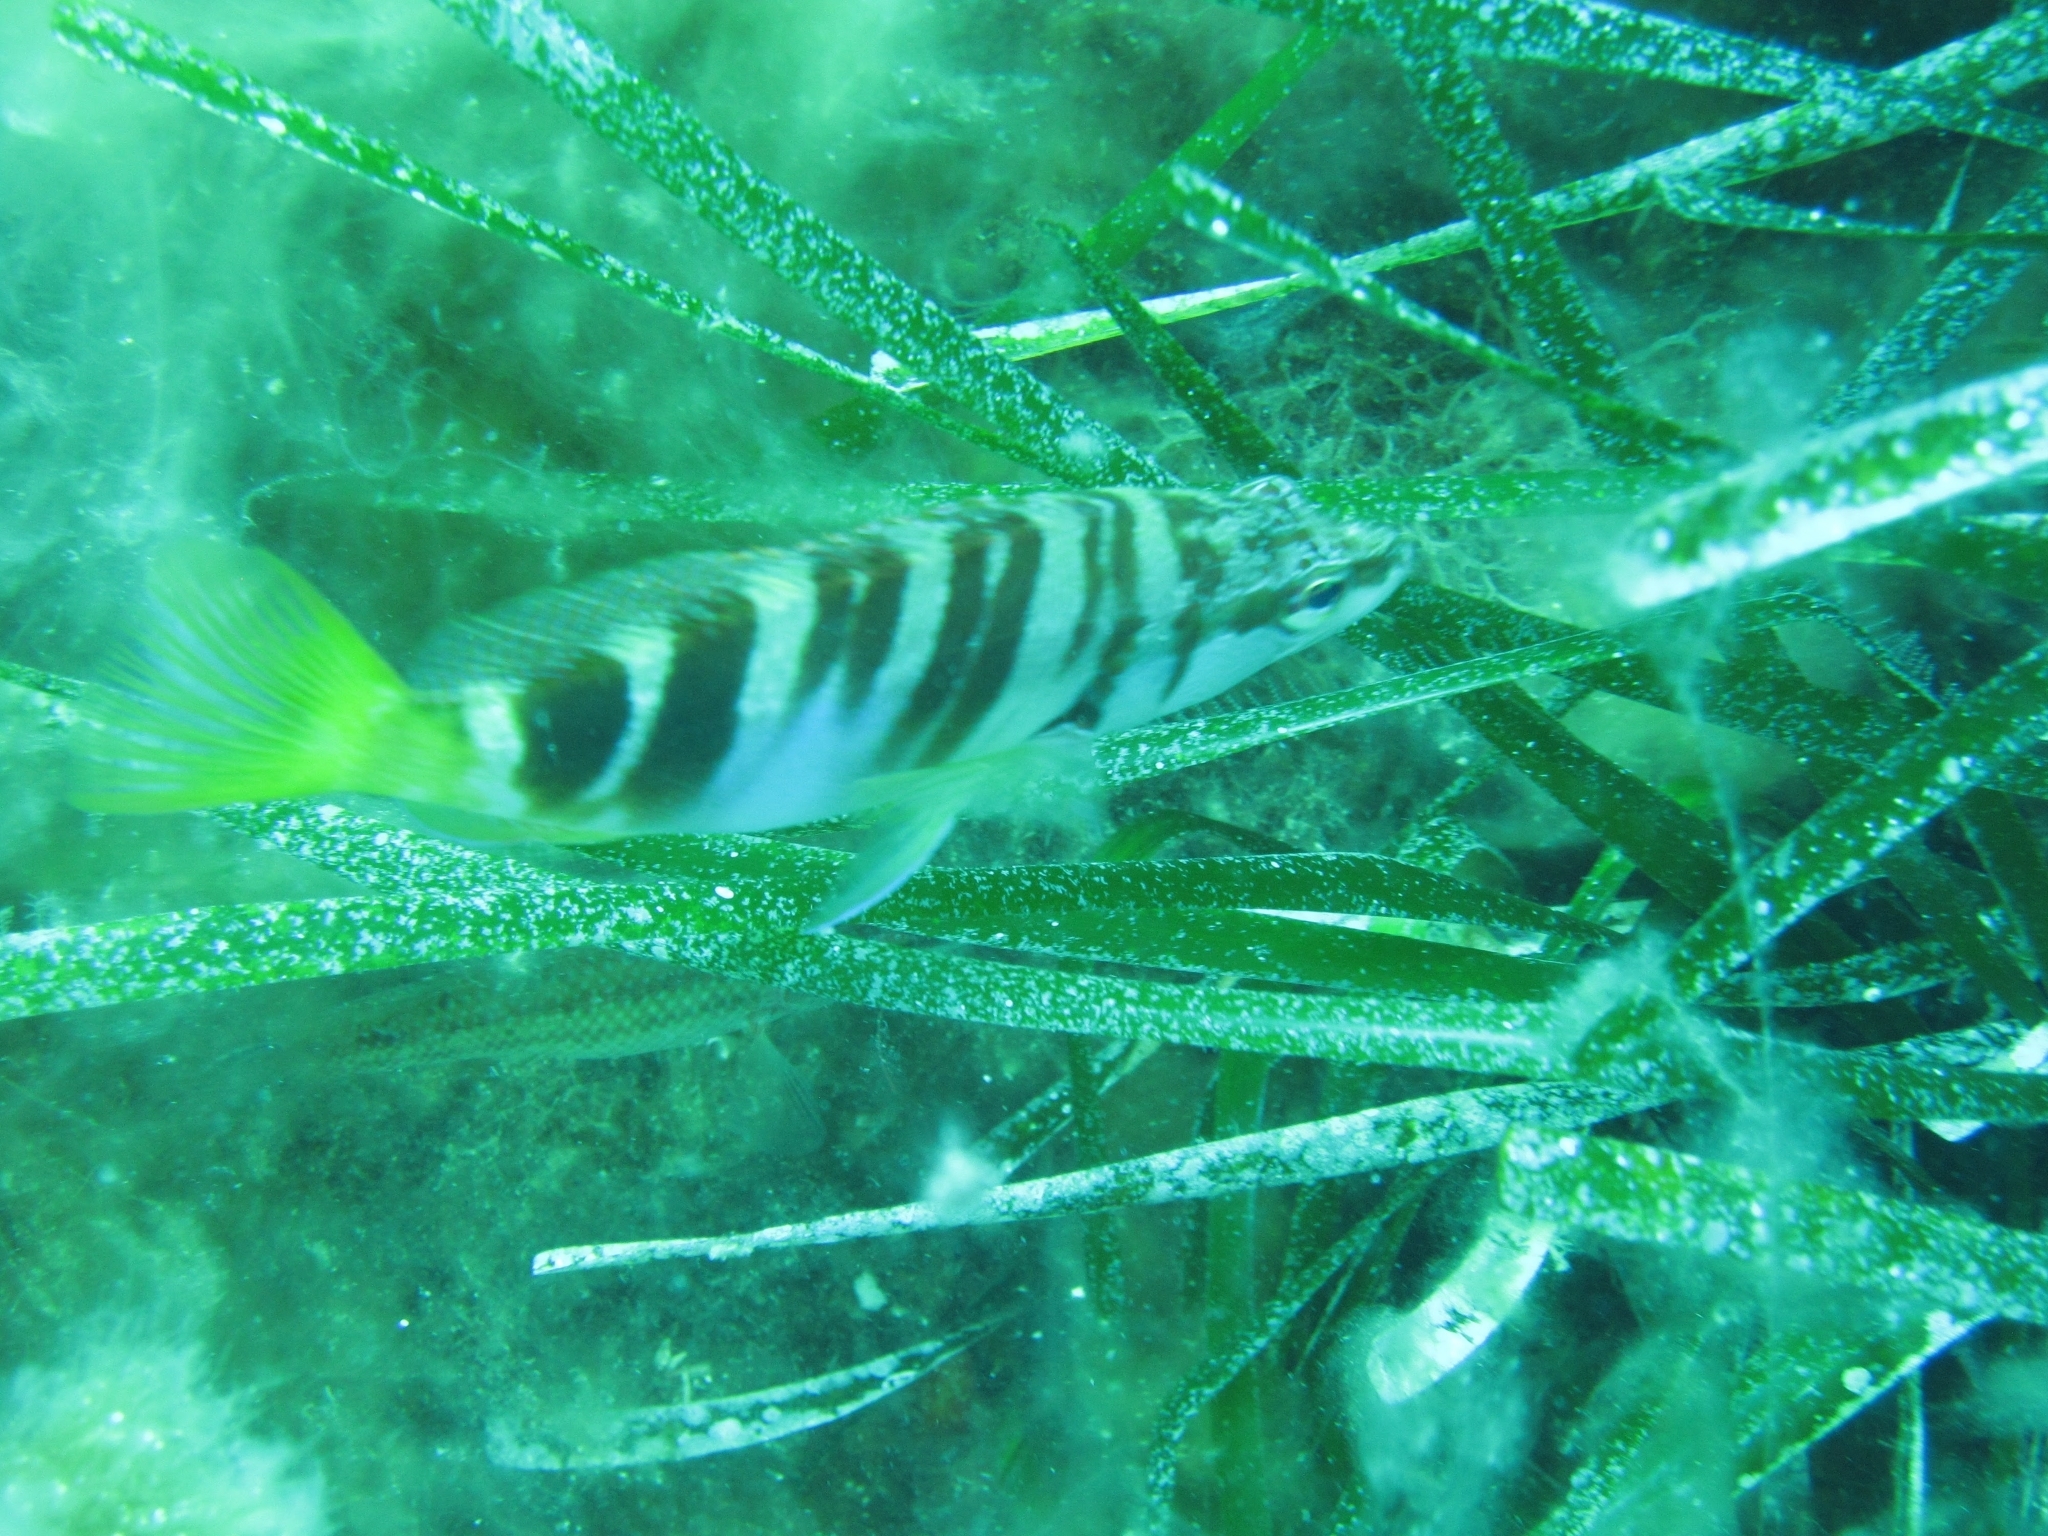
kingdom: Animalia
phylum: Chordata
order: Perciformes
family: Serranidae
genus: Serranus
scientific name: Serranus scriba
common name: Painted comber
